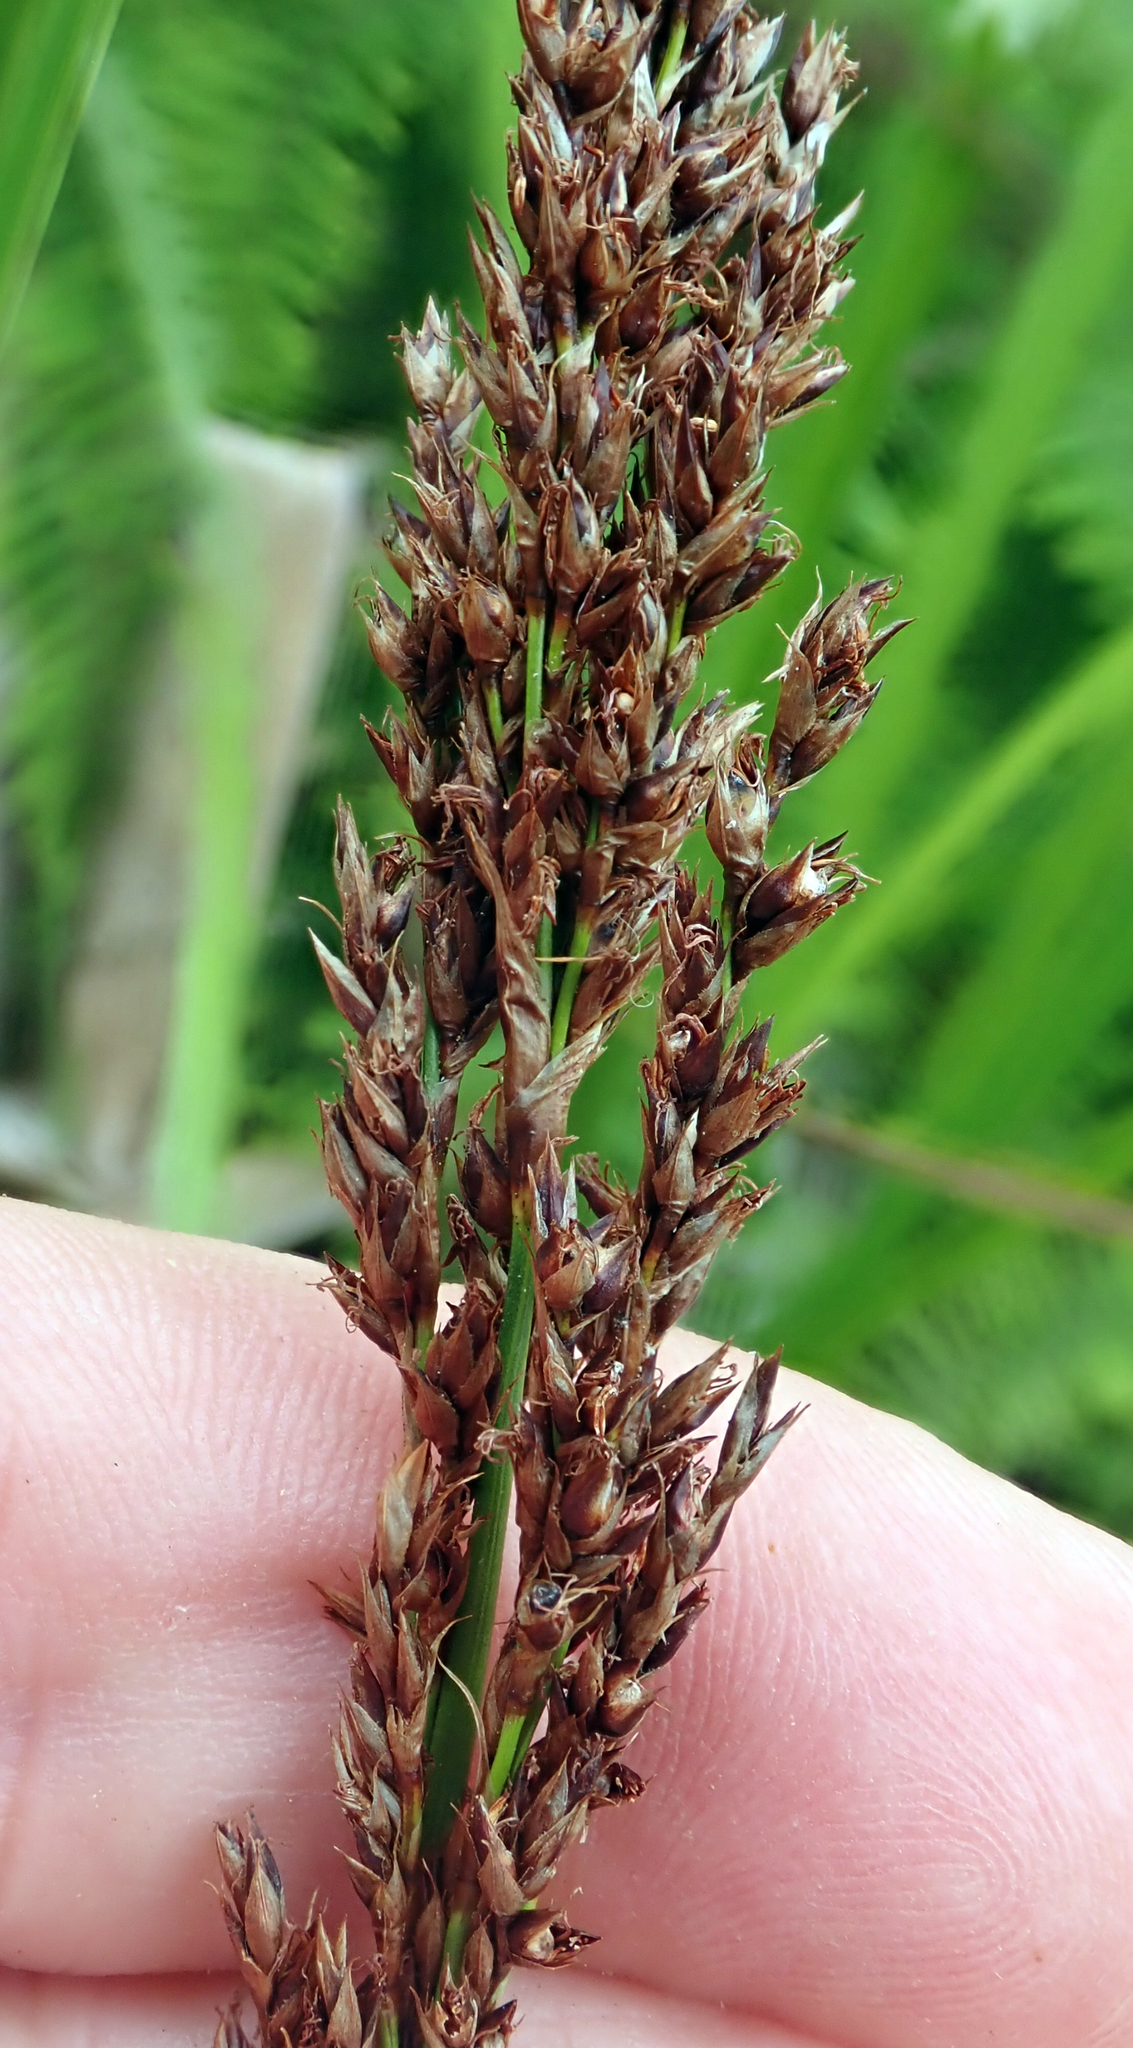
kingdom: Plantae
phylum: Tracheophyta
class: Liliopsida
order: Poales
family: Cyperaceae
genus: Machaerina
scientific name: Machaerina teretifolia
